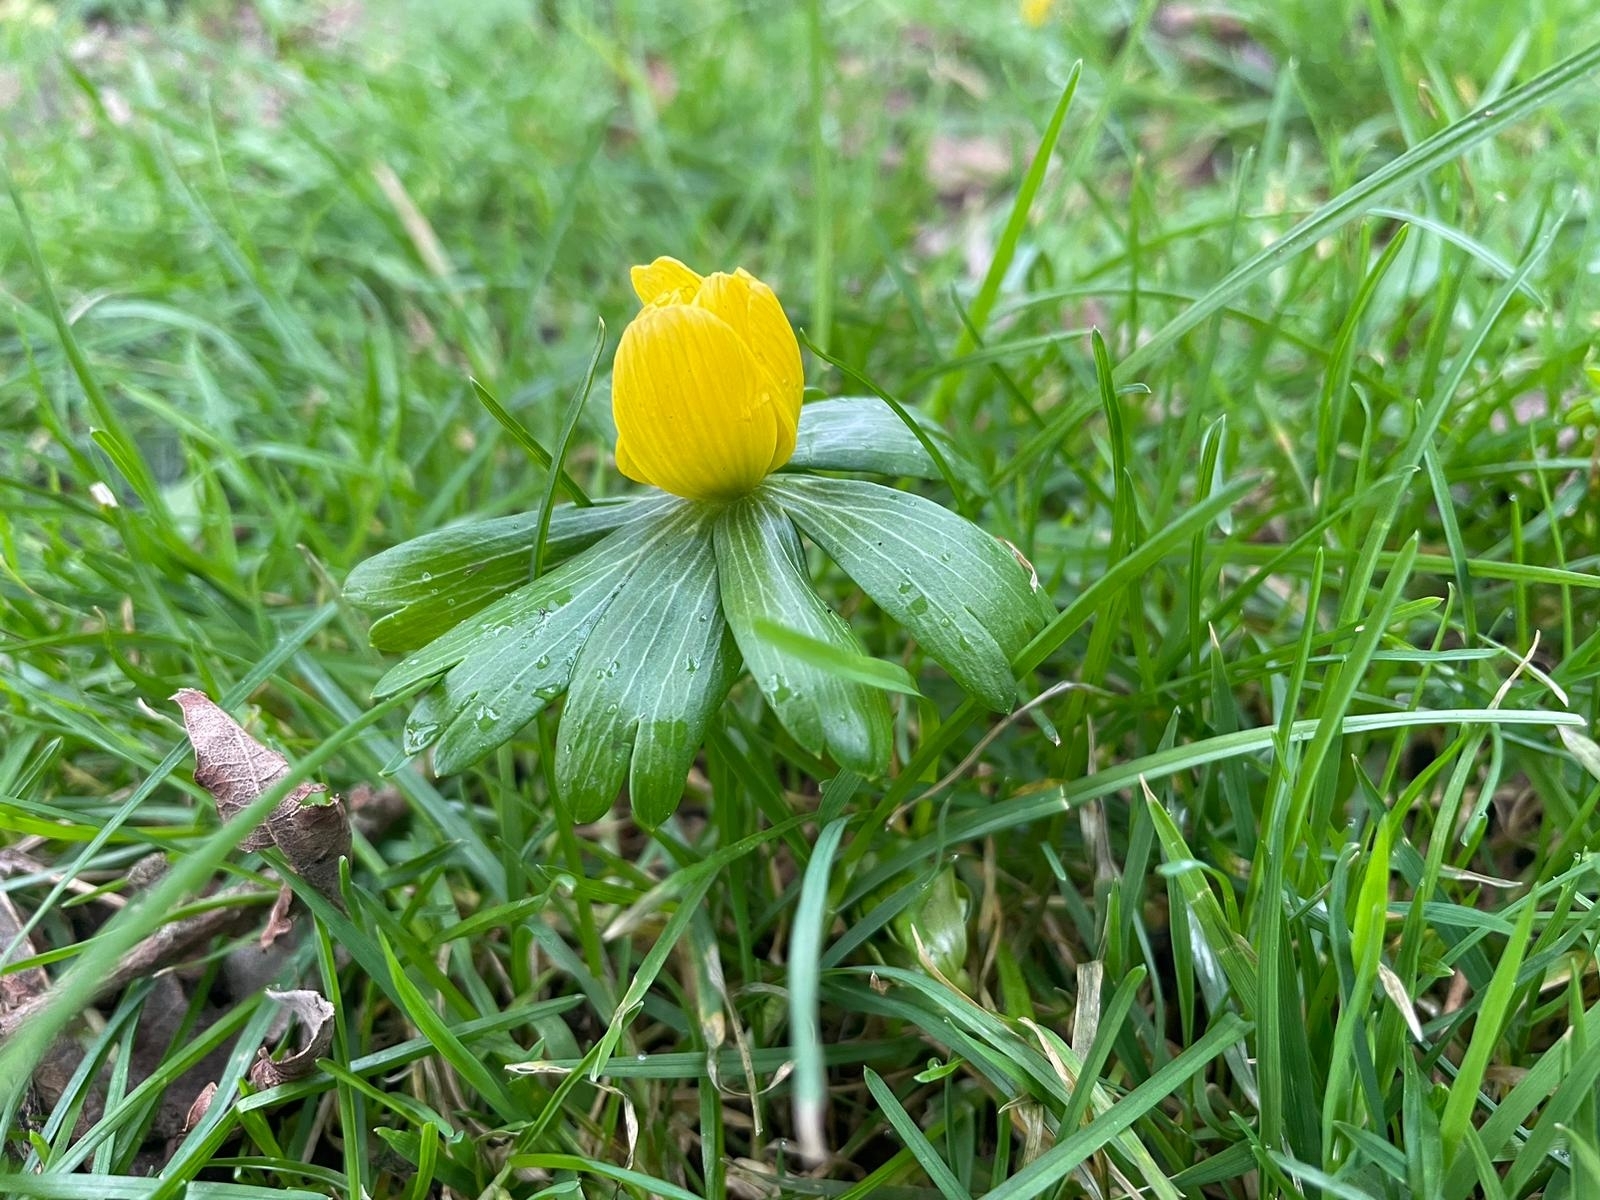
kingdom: Plantae
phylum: Tracheophyta
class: Magnoliopsida
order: Ranunculales
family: Ranunculaceae
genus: Eranthis
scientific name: Eranthis hyemalis
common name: Winter aconite
